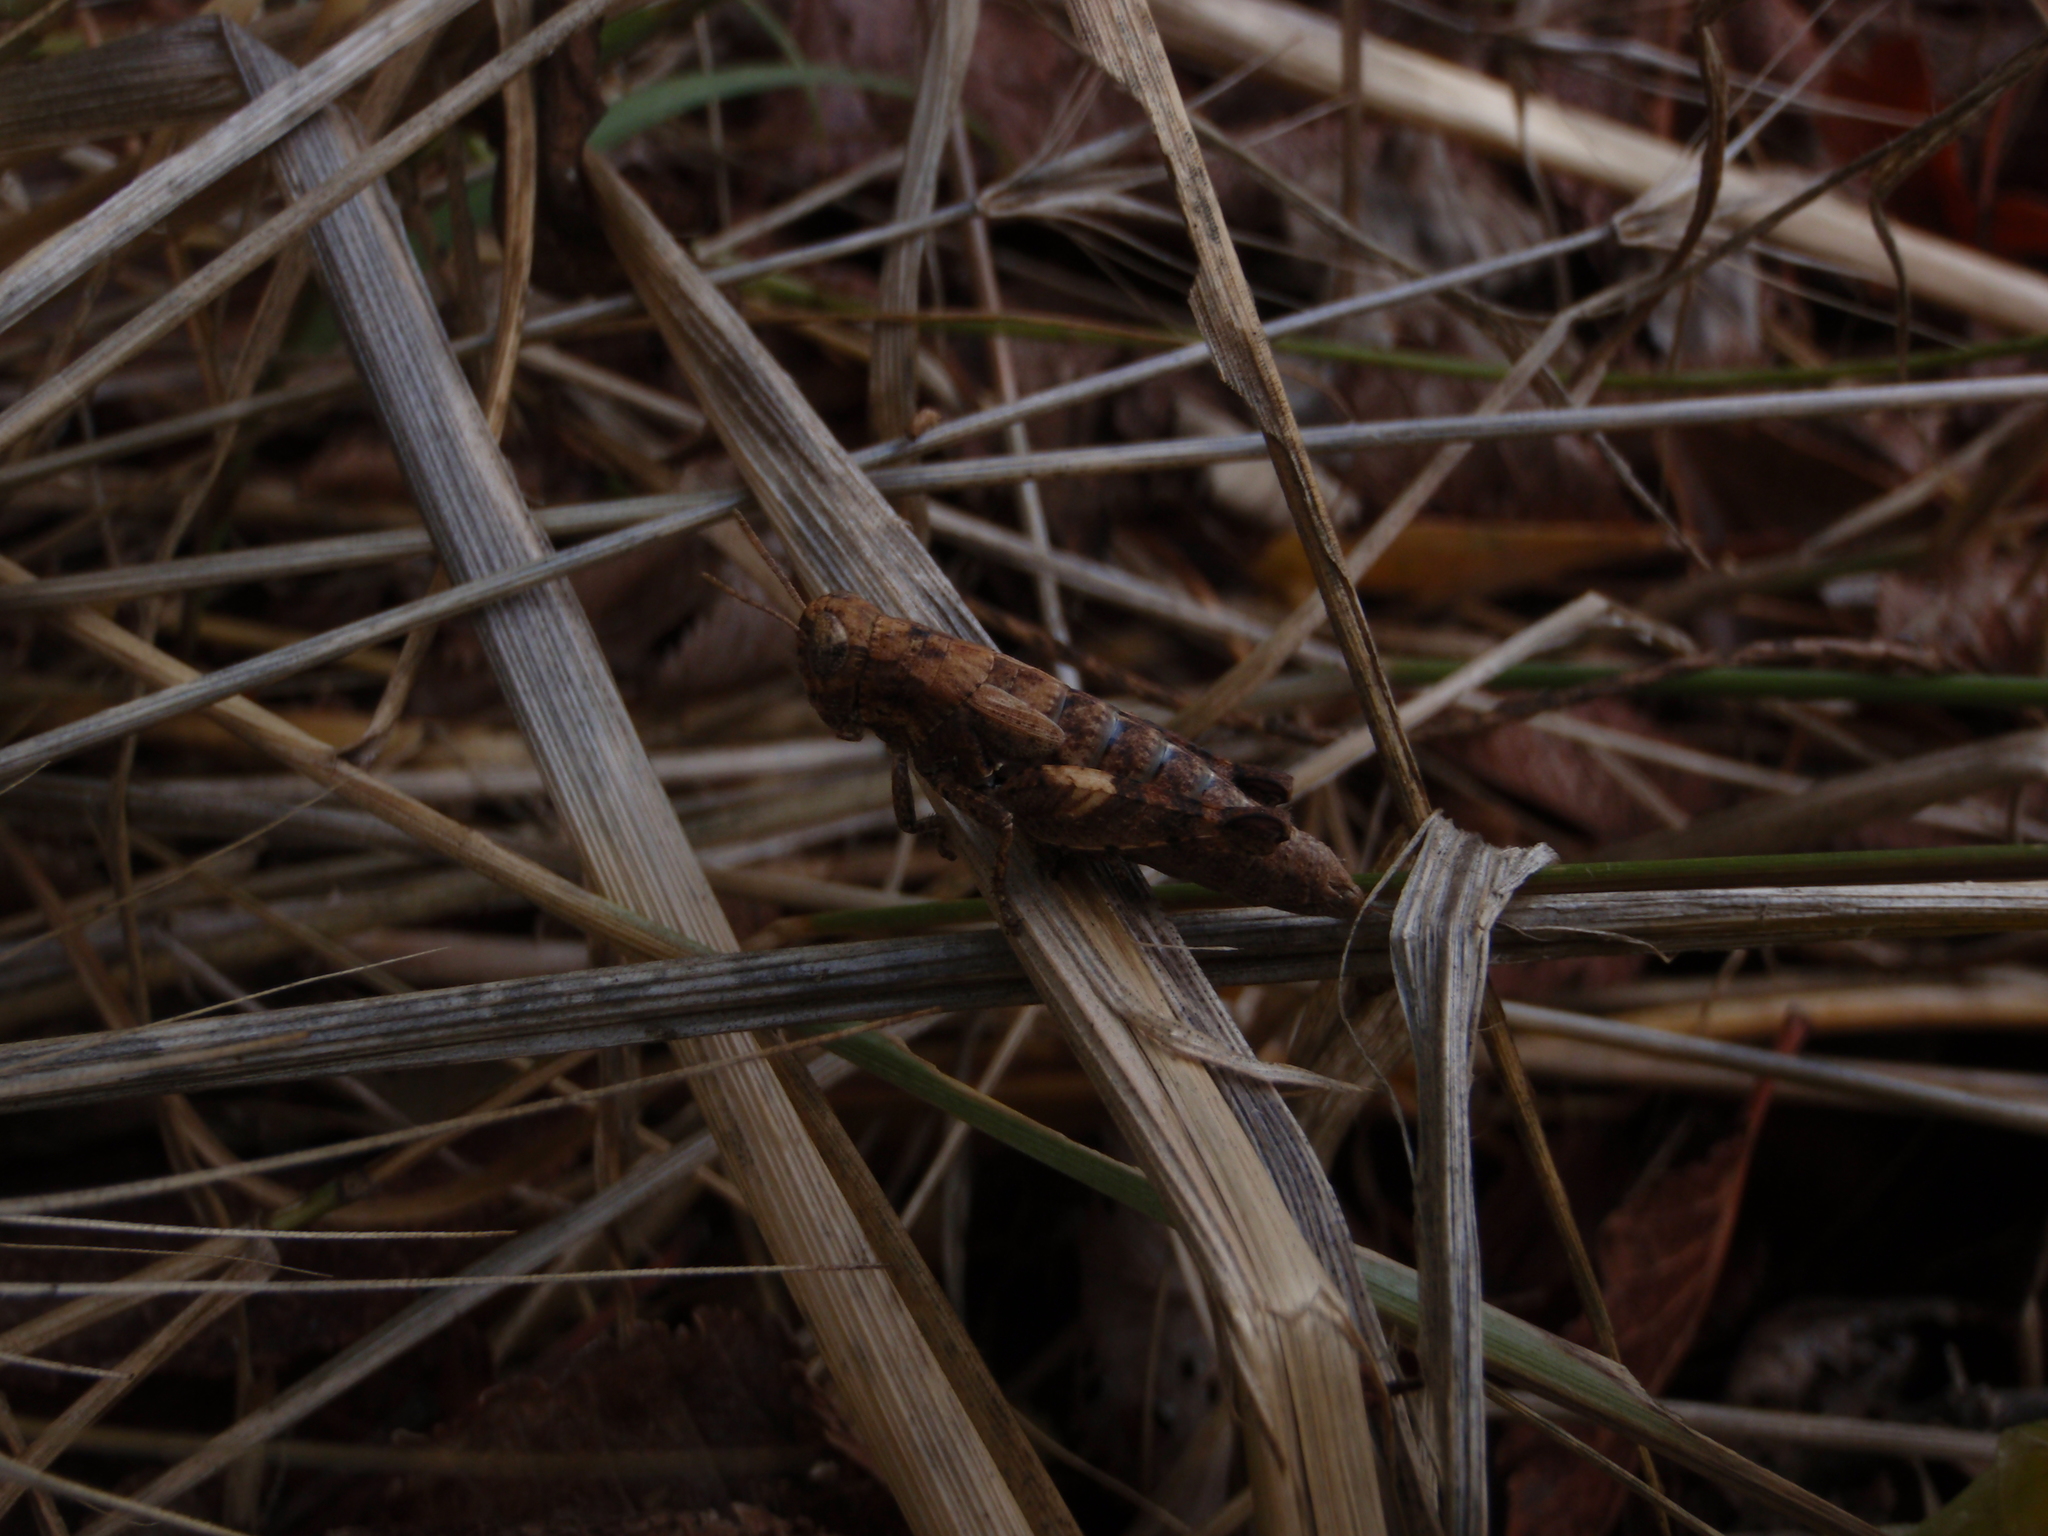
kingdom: Animalia
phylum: Arthropoda
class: Insecta
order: Orthoptera
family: Acrididae
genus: Pezotettix
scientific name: Pezotettix giornae
